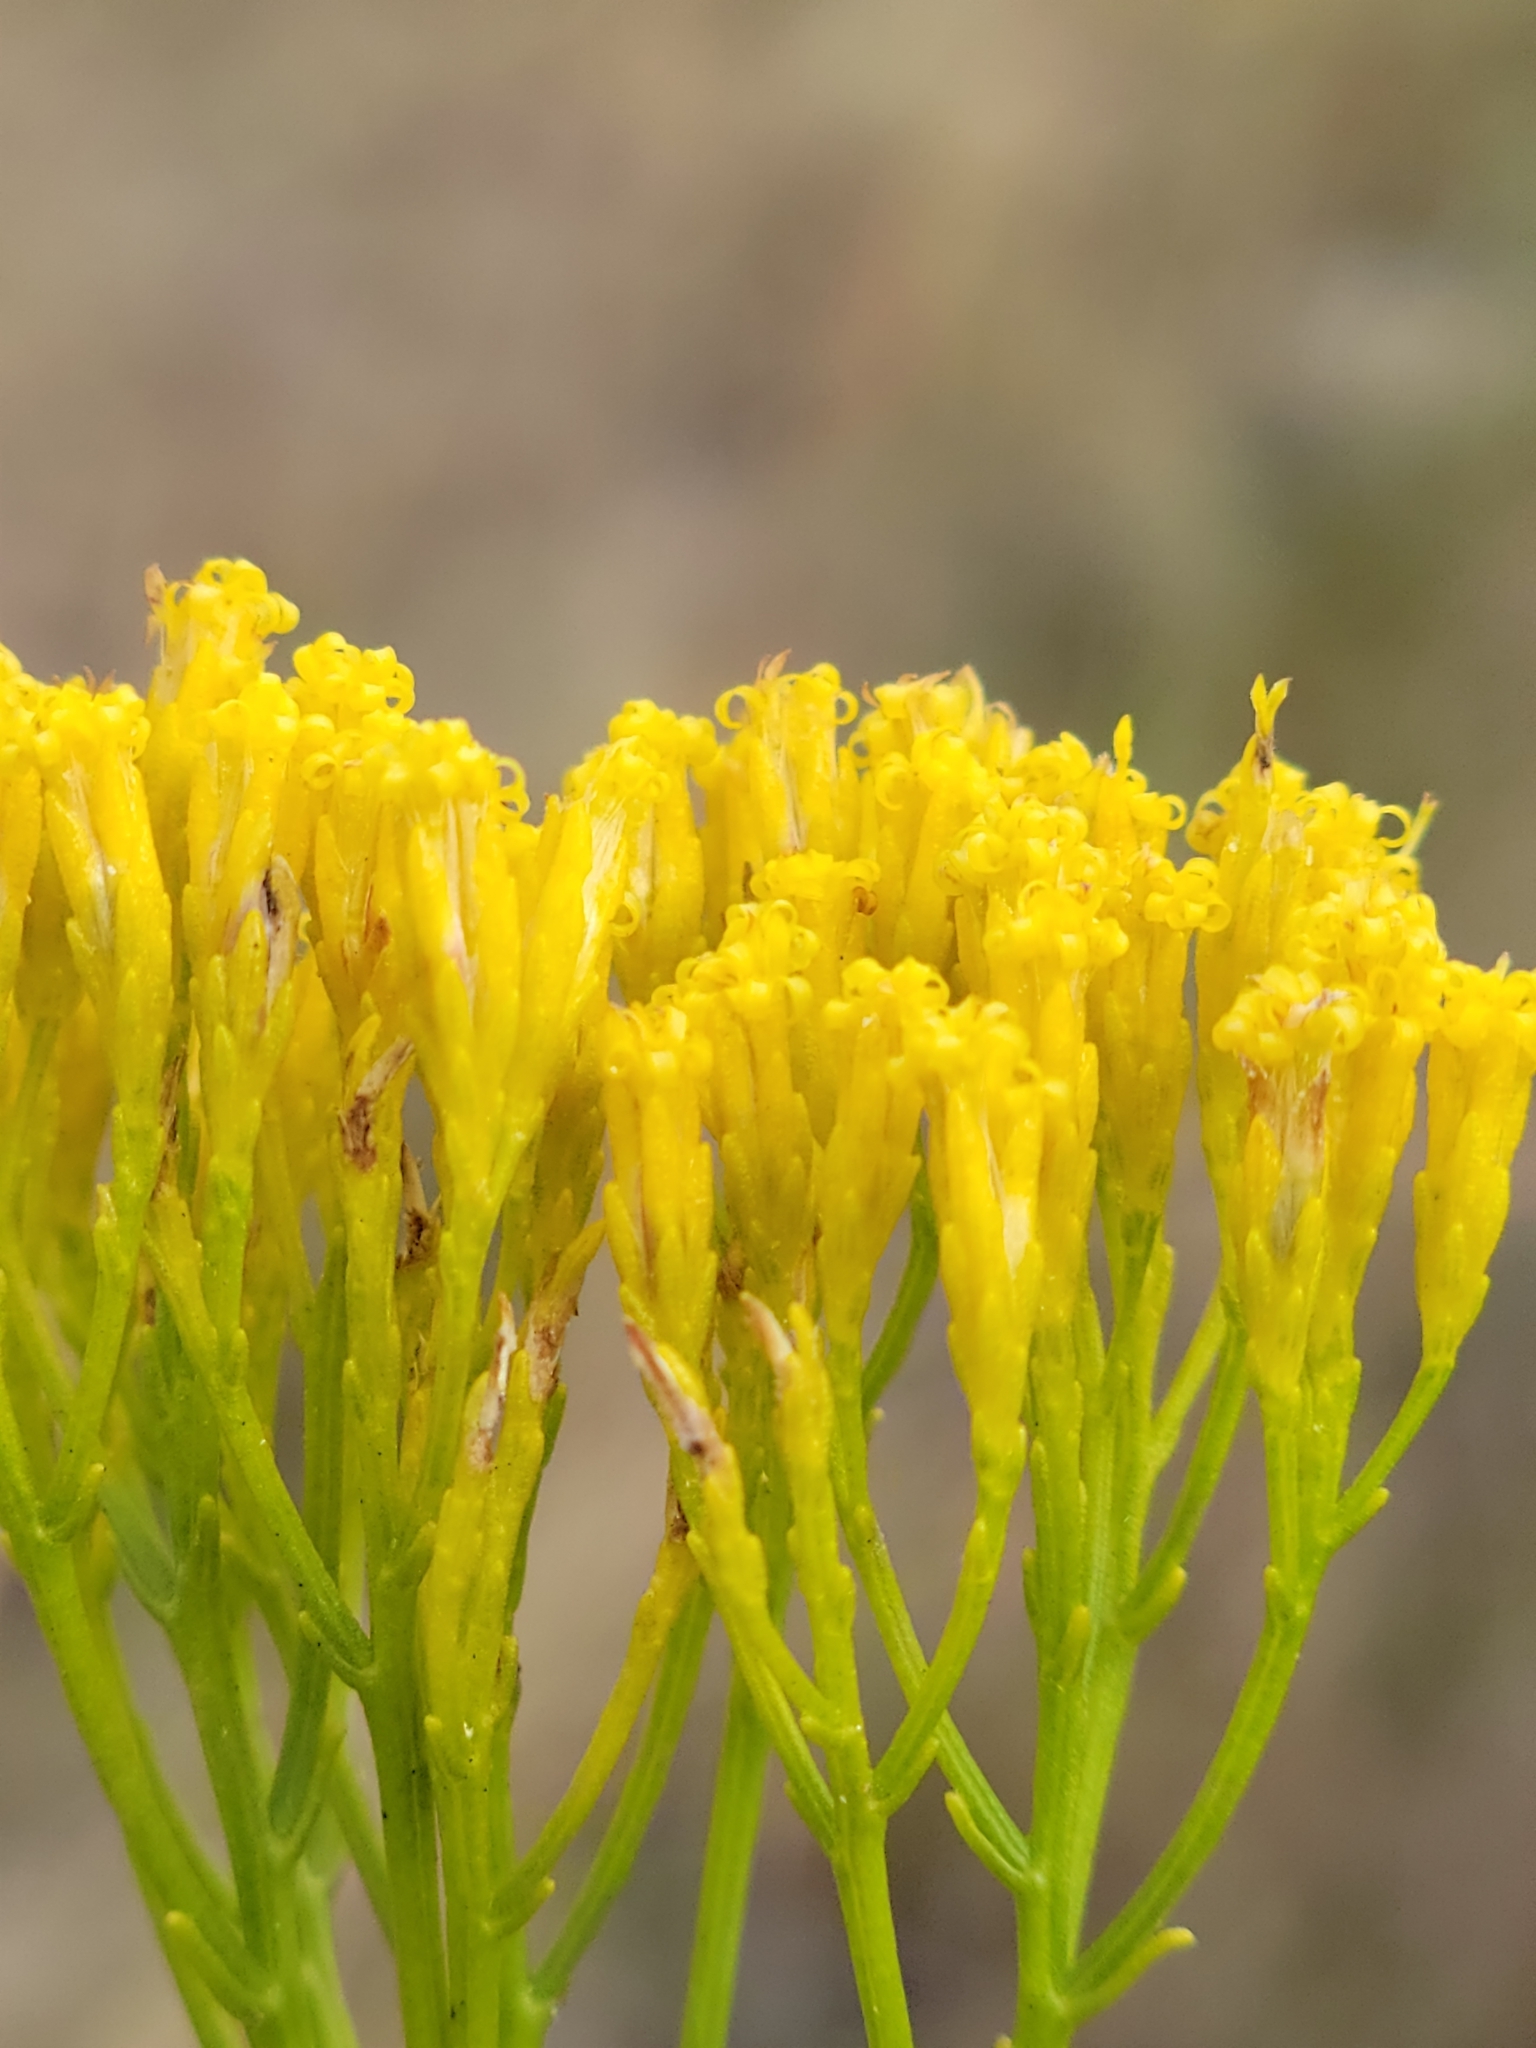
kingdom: Plantae
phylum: Tracheophyta
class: Magnoliopsida
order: Asterales
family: Asteraceae
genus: Bigelowia
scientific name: Bigelowia australis
